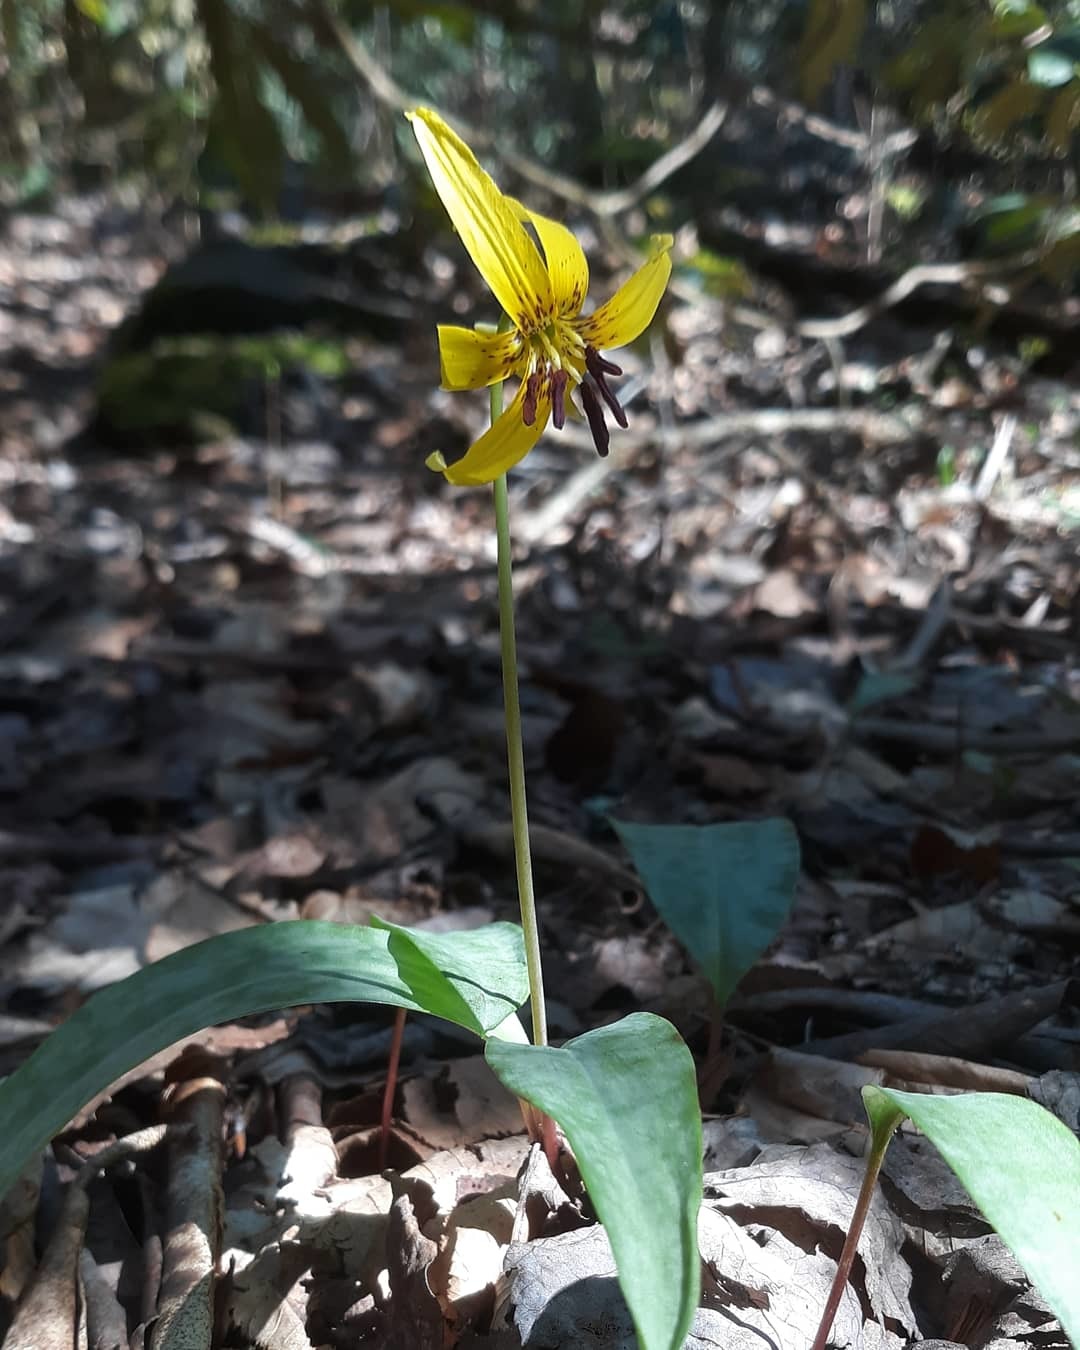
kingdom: Plantae
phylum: Tracheophyta
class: Liliopsida
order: Liliales
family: Liliaceae
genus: Erythronium
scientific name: Erythronium americanum
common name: Yellow adder's-tongue
